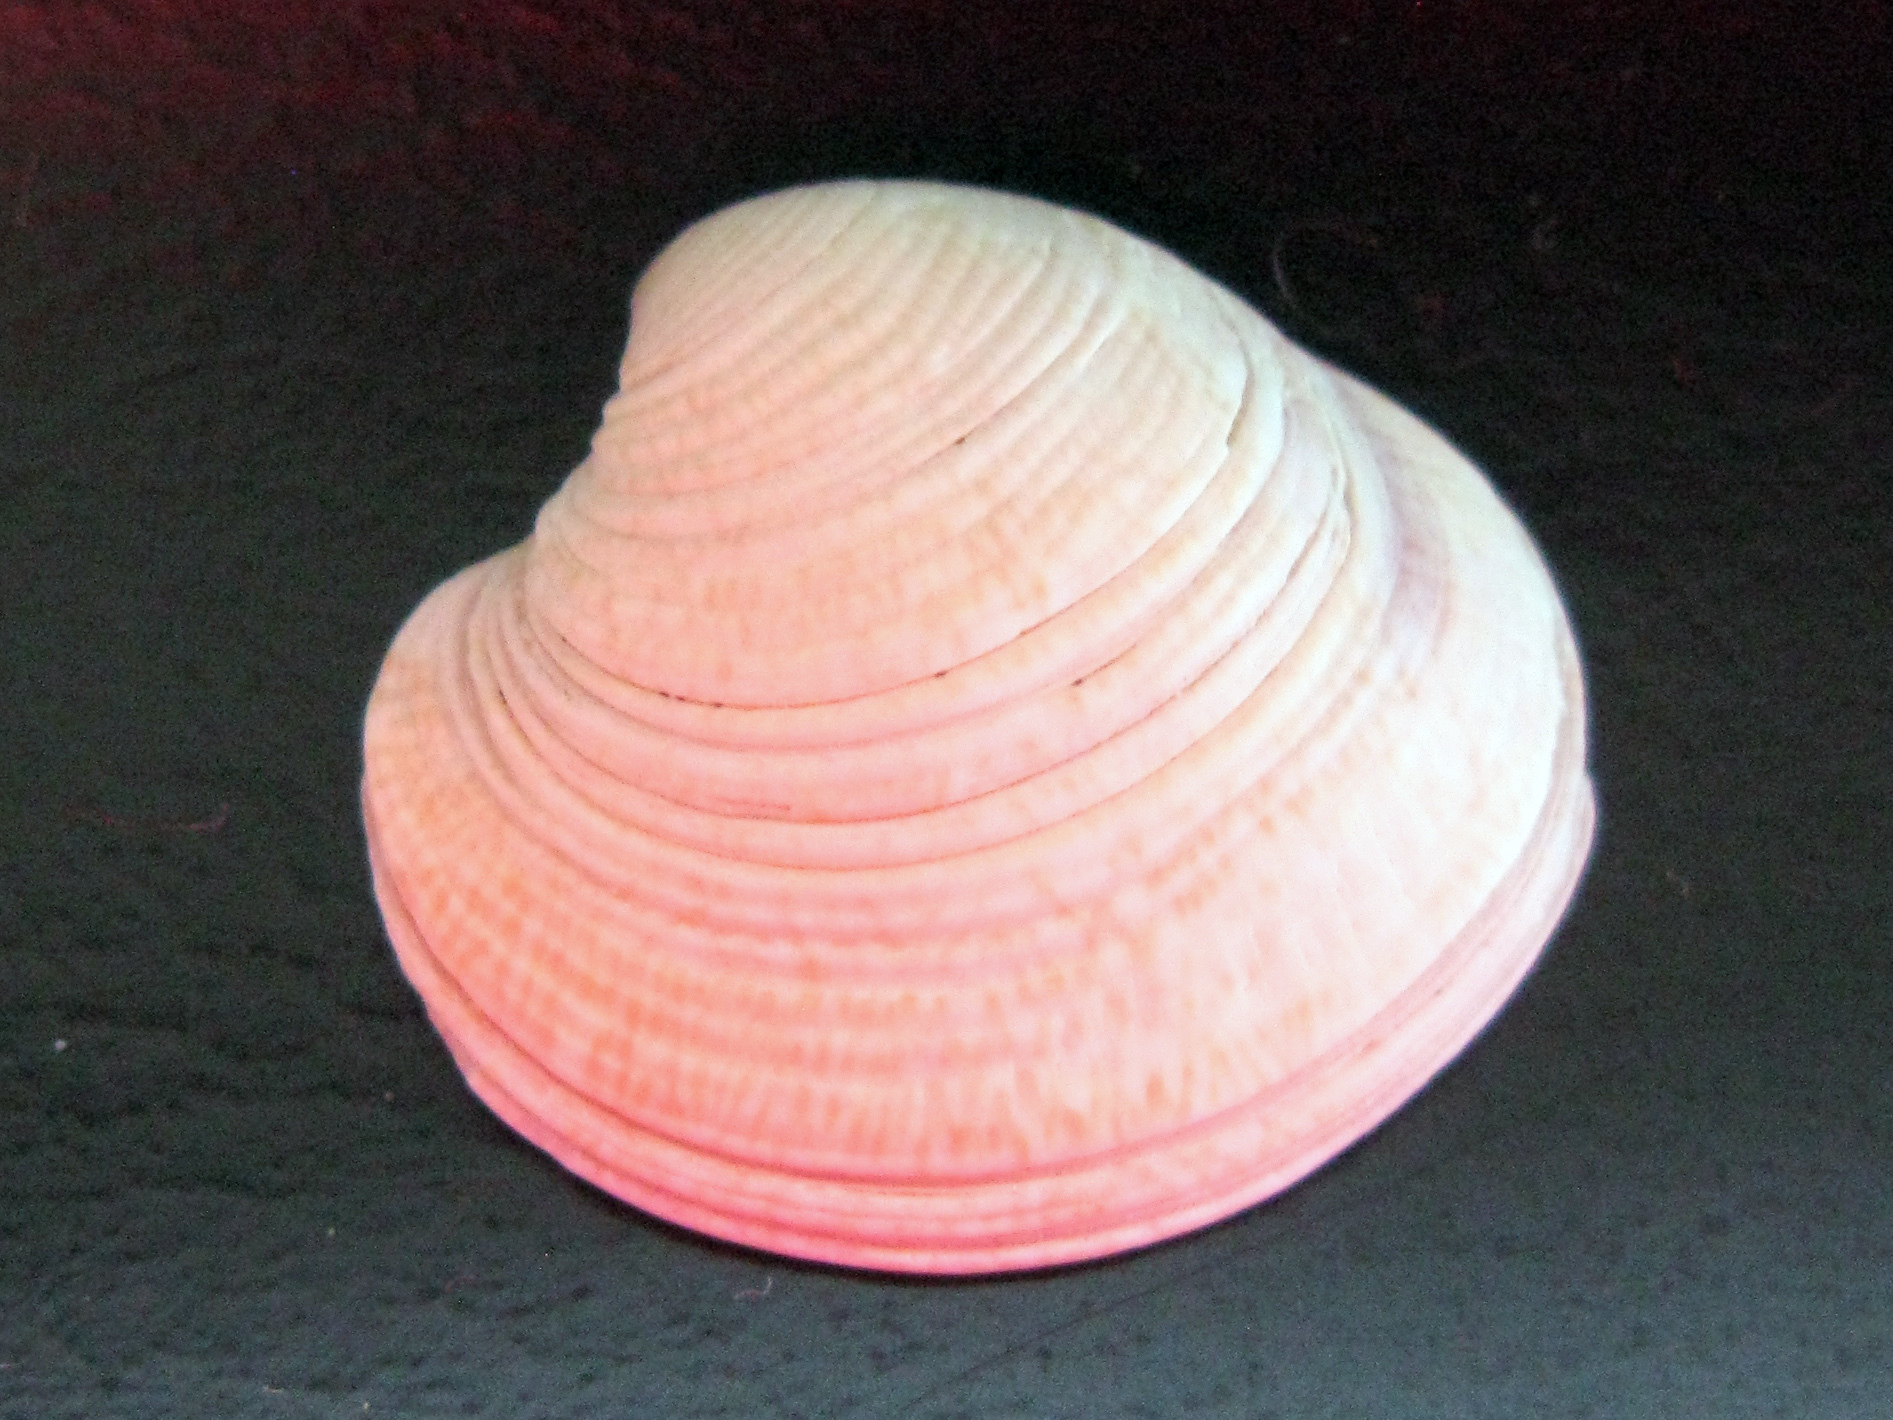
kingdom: Animalia
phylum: Mollusca
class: Bivalvia
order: Venerida
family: Veneridae
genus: Chamelea
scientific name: Chamelea gallina
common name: Chicken venus
